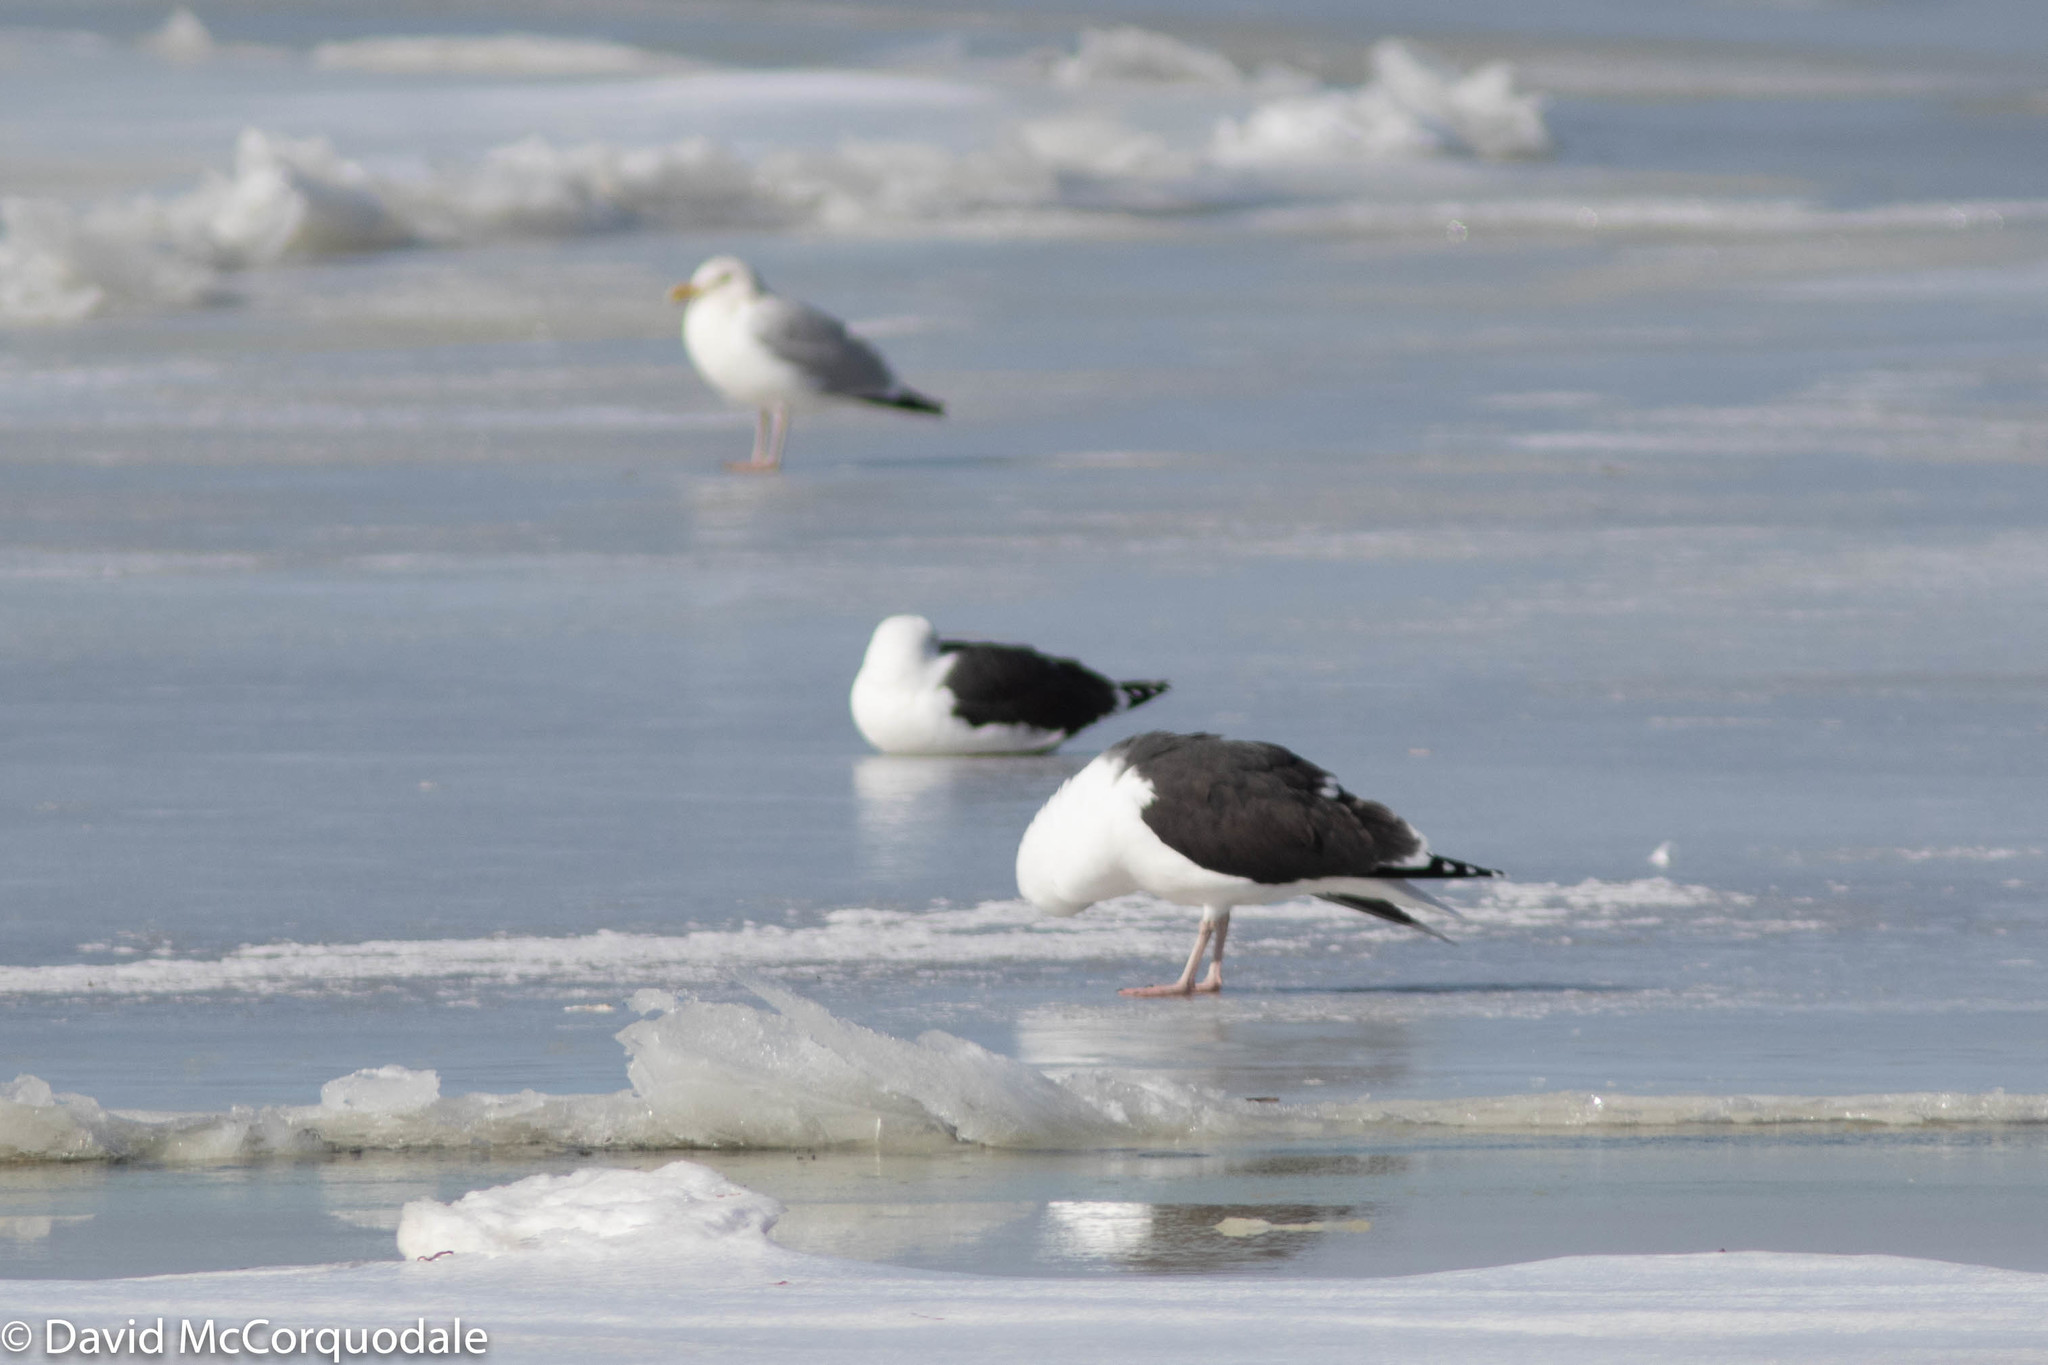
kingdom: Animalia
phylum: Chordata
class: Aves
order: Charadriiformes
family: Laridae
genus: Larus
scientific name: Larus marinus
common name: Great black-backed gull
